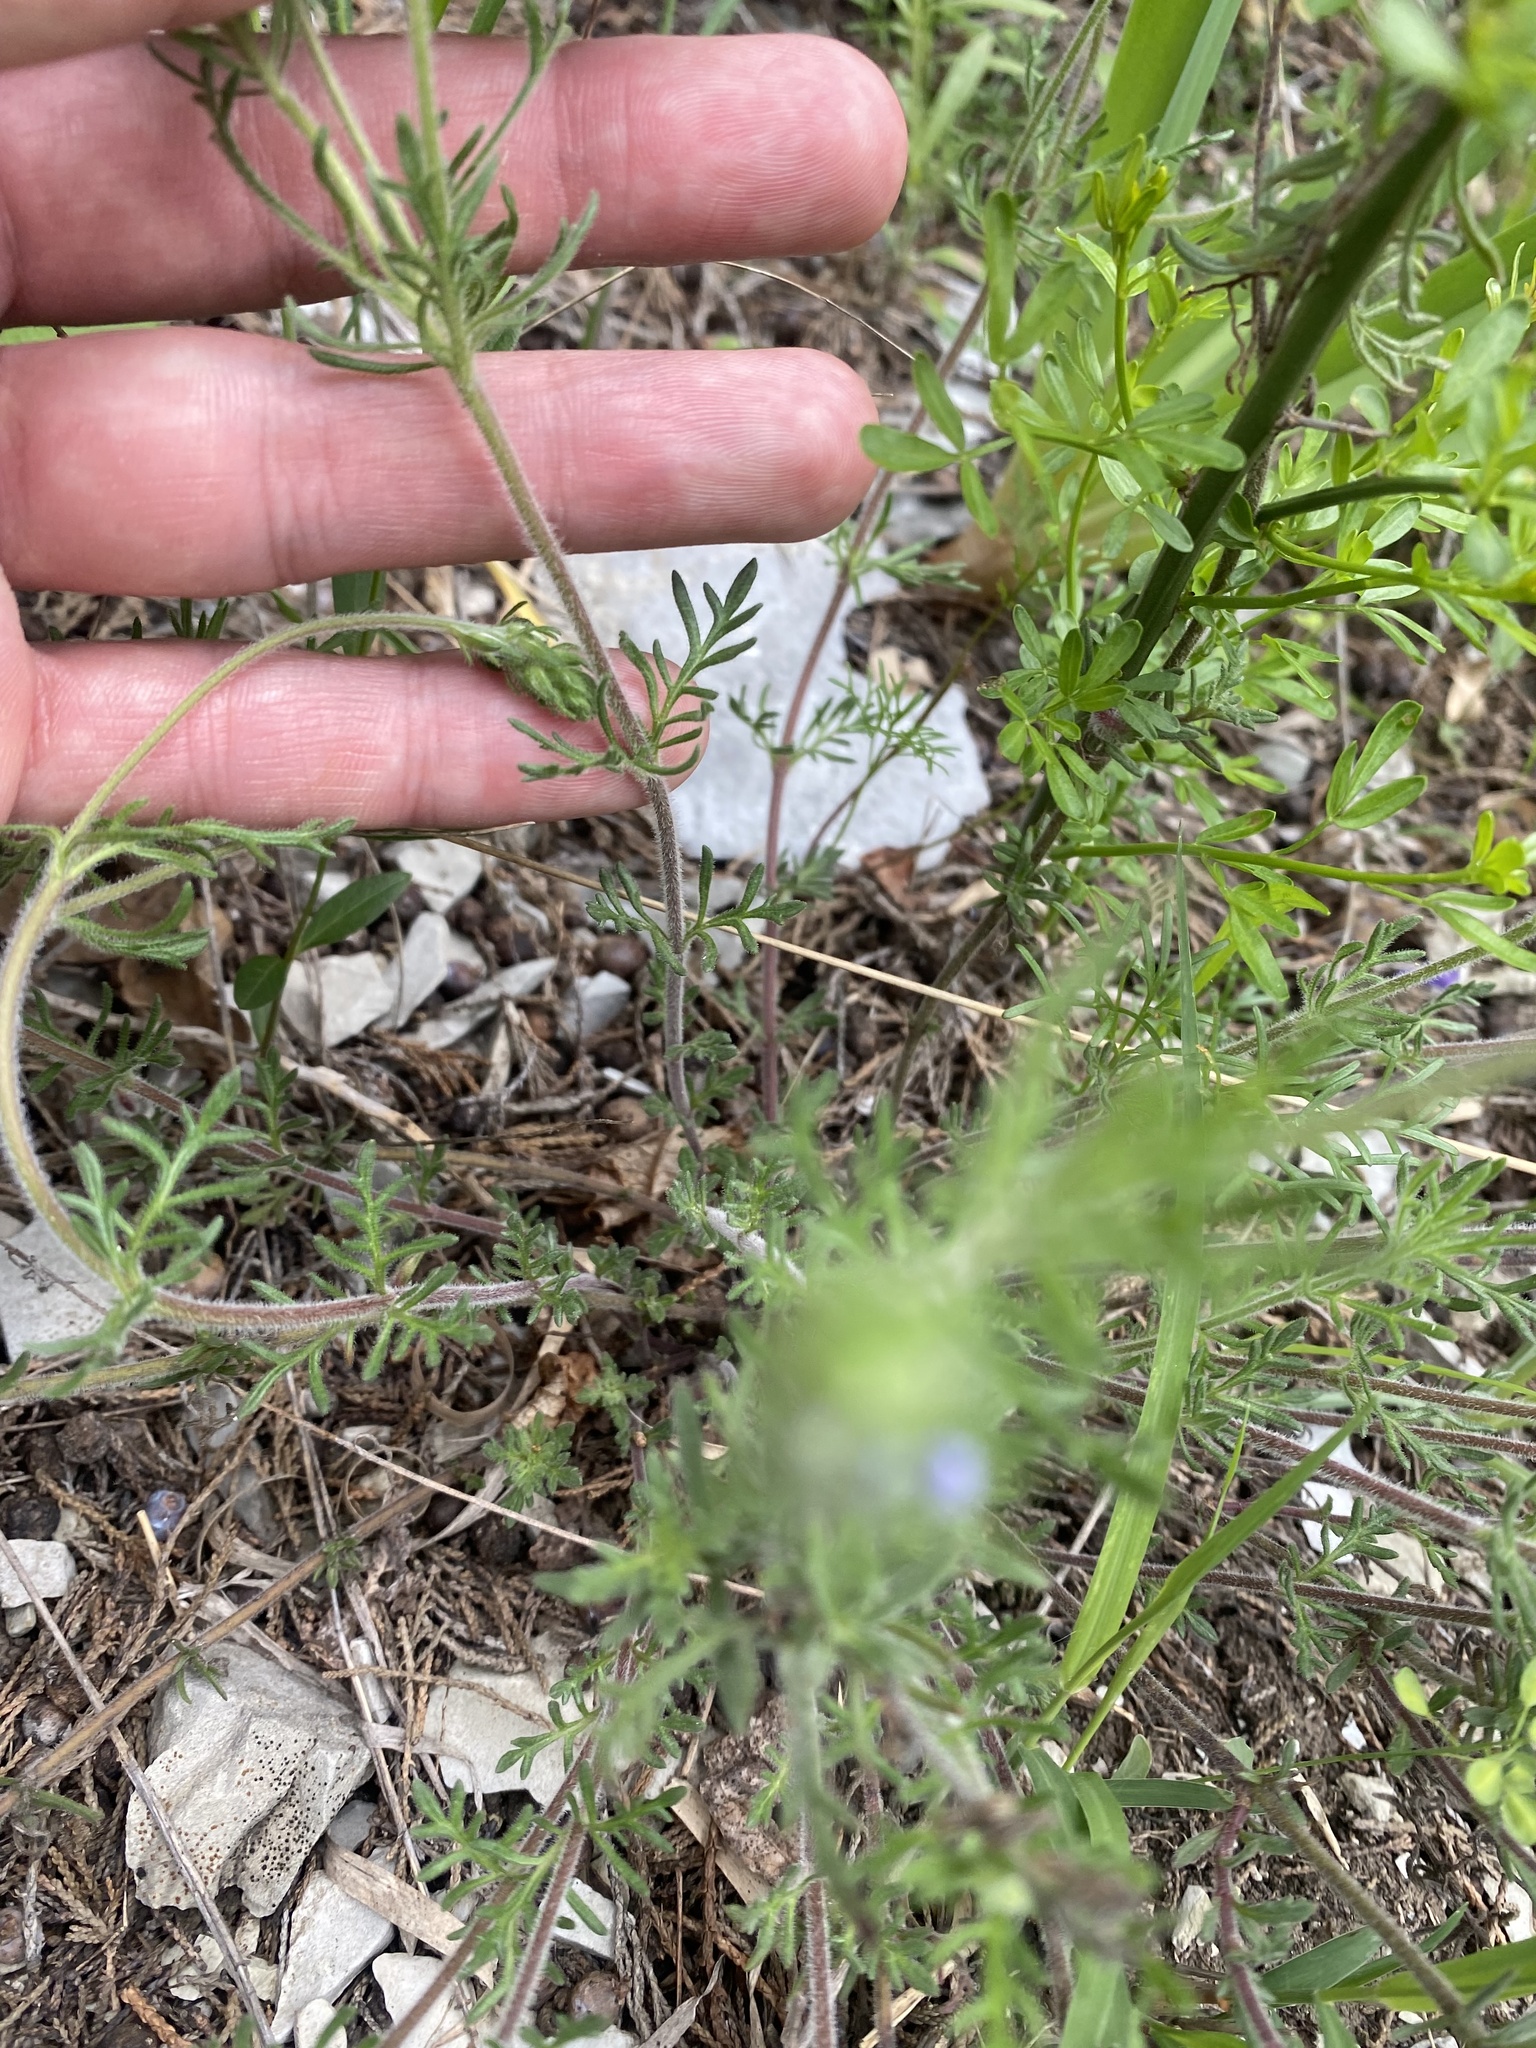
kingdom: Plantae
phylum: Tracheophyta
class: Magnoliopsida
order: Lamiales
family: Plantaginaceae
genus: Veronica
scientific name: Veronica capsellicarpa
